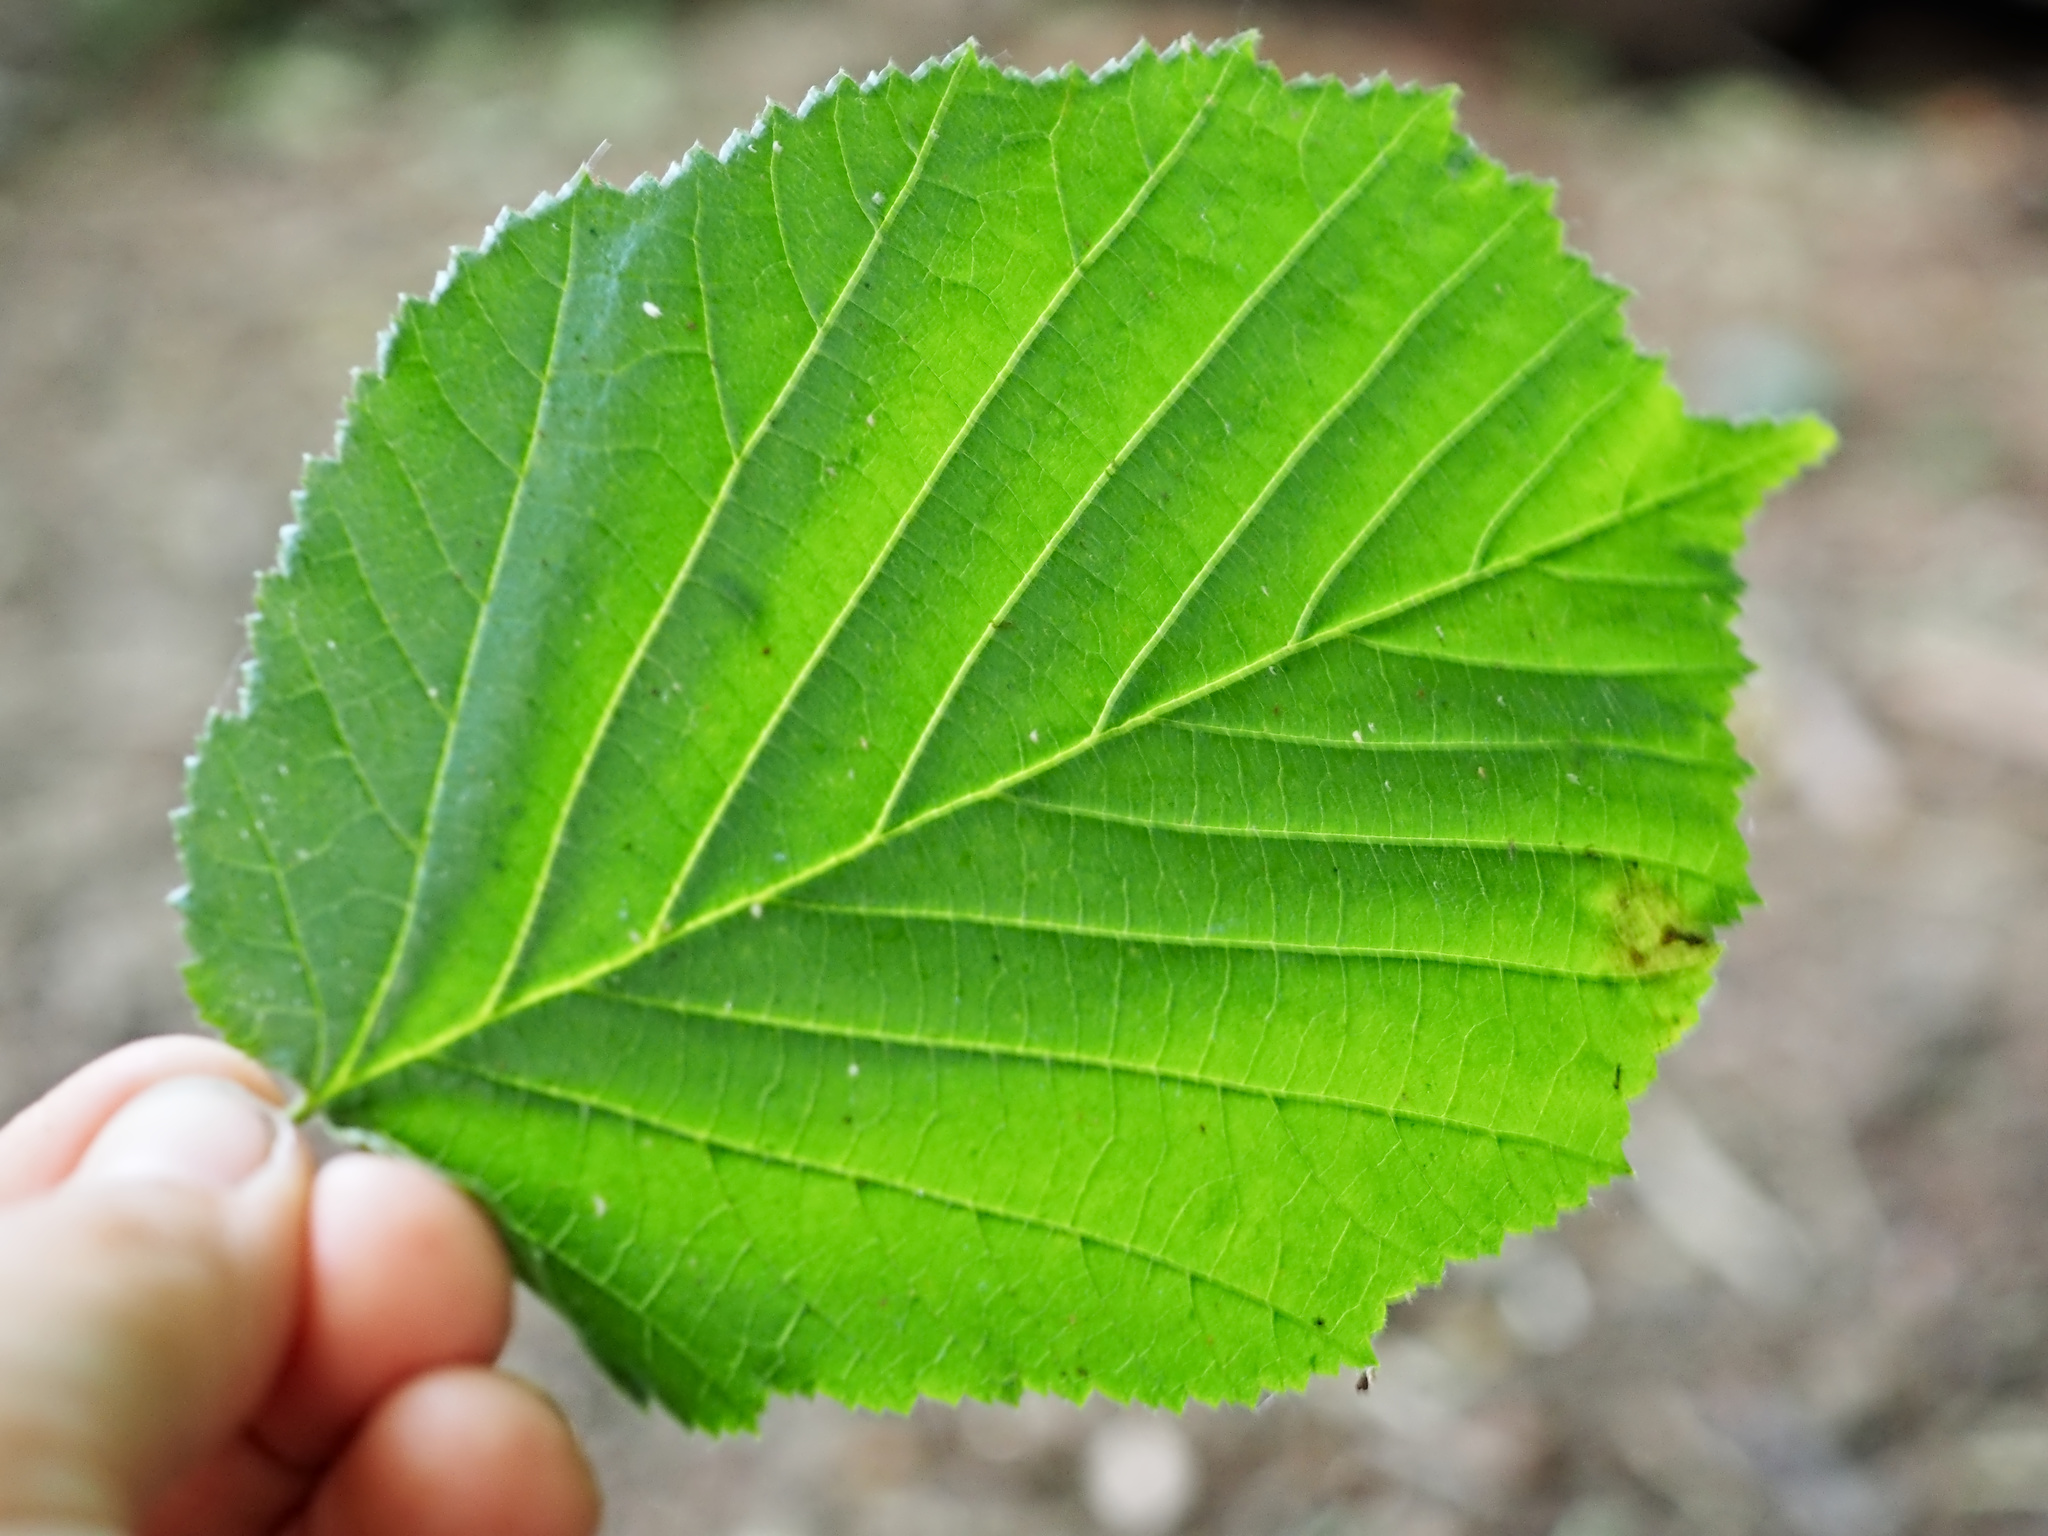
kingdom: Plantae
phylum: Tracheophyta
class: Magnoliopsida
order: Fagales
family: Betulaceae
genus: Corylus
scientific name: Corylus avellana
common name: European hazel
